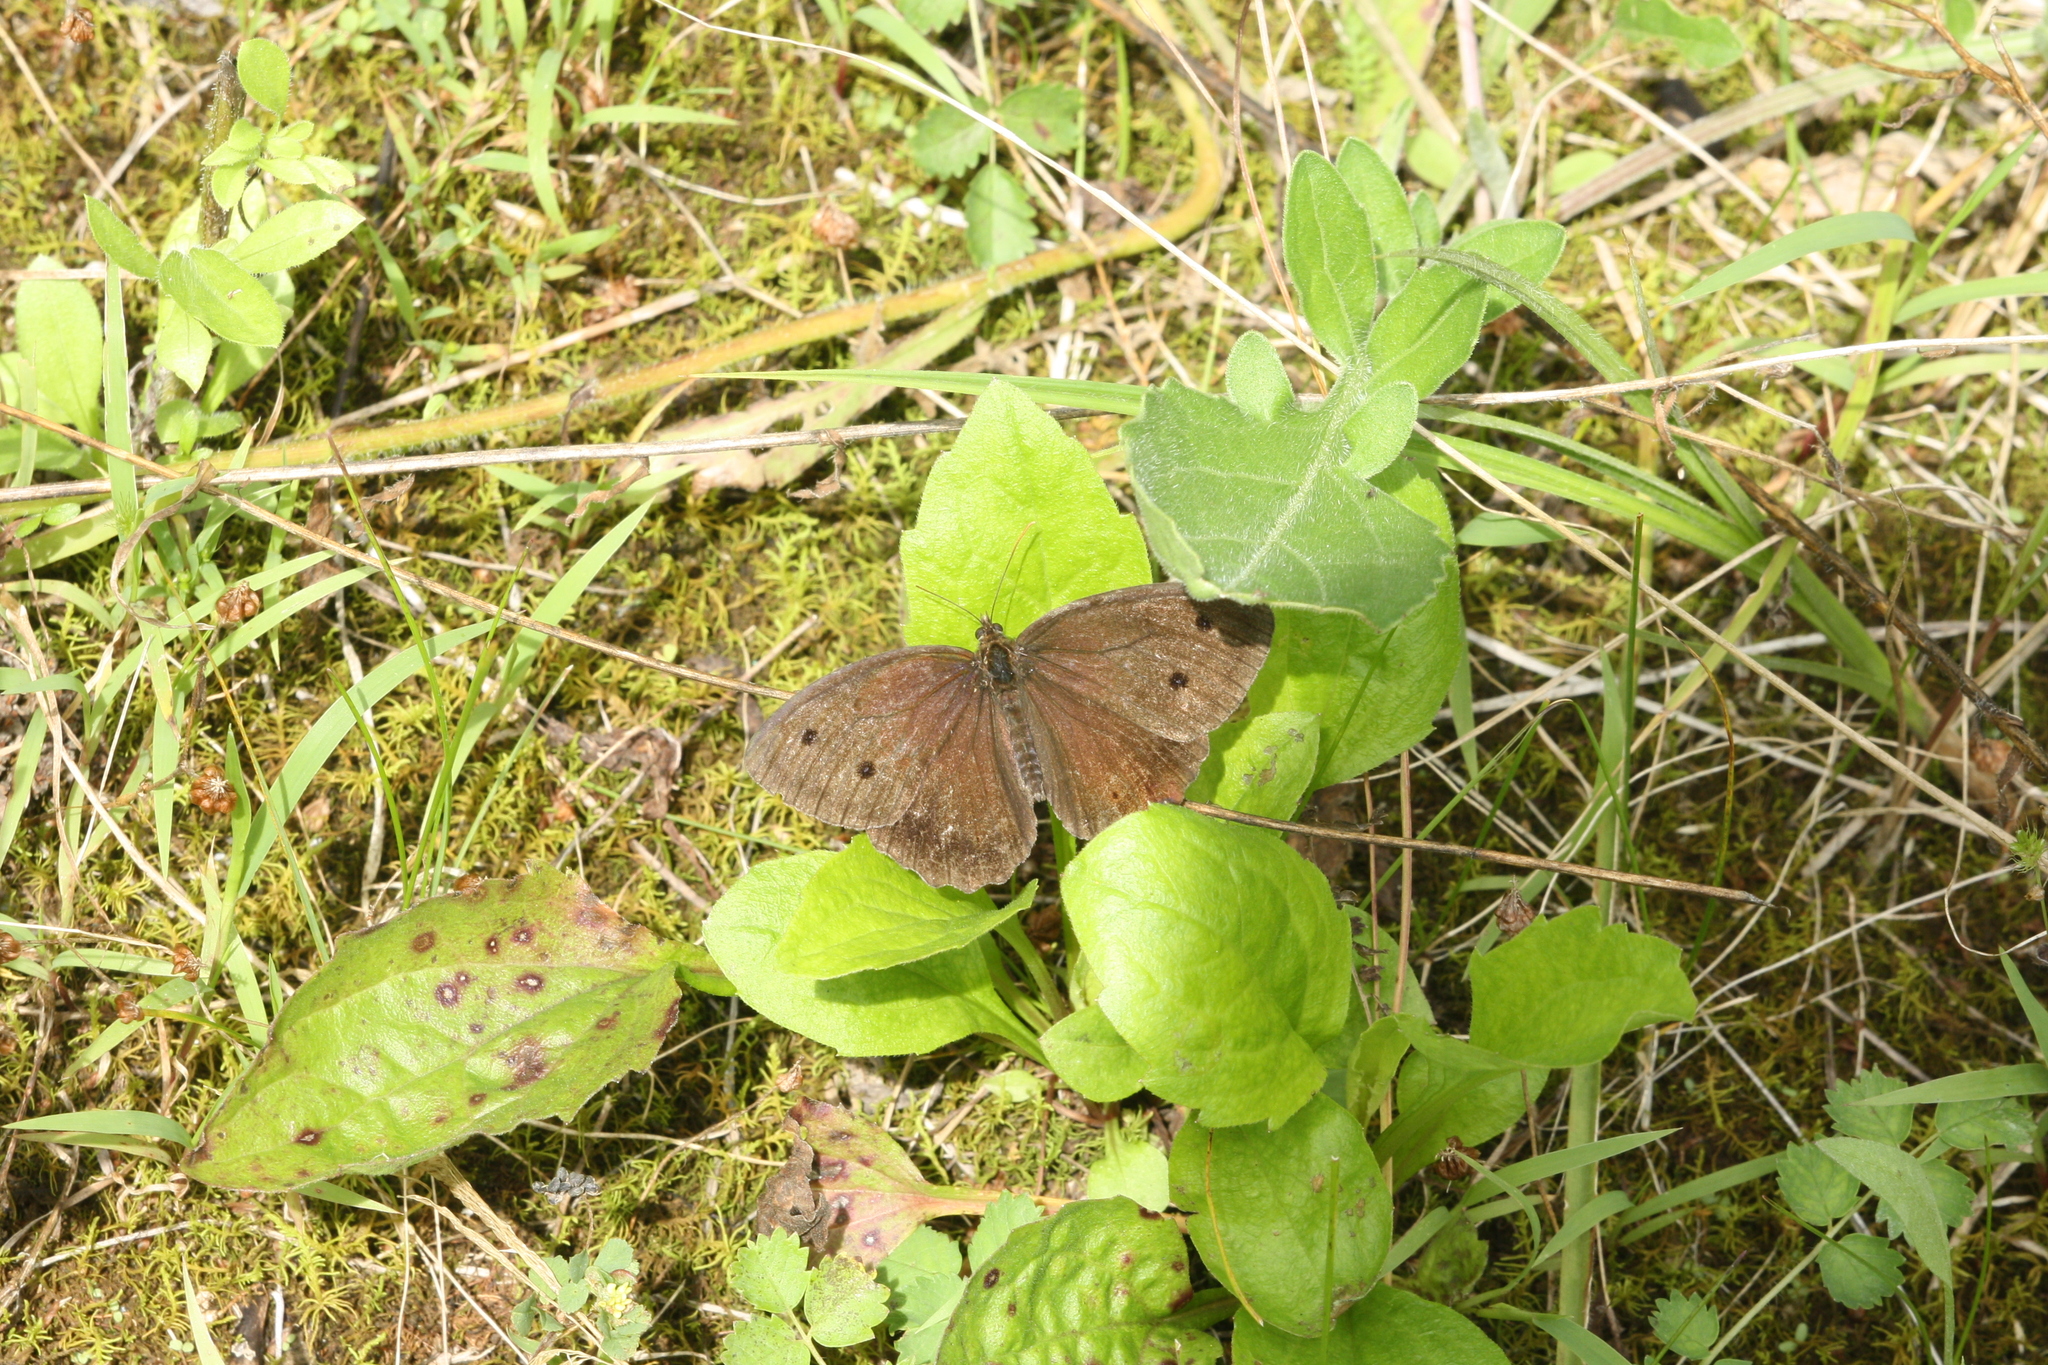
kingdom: Animalia
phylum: Arthropoda
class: Insecta
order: Lepidoptera
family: Nymphalidae
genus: Minois
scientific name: Minois dryas
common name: Dryad
